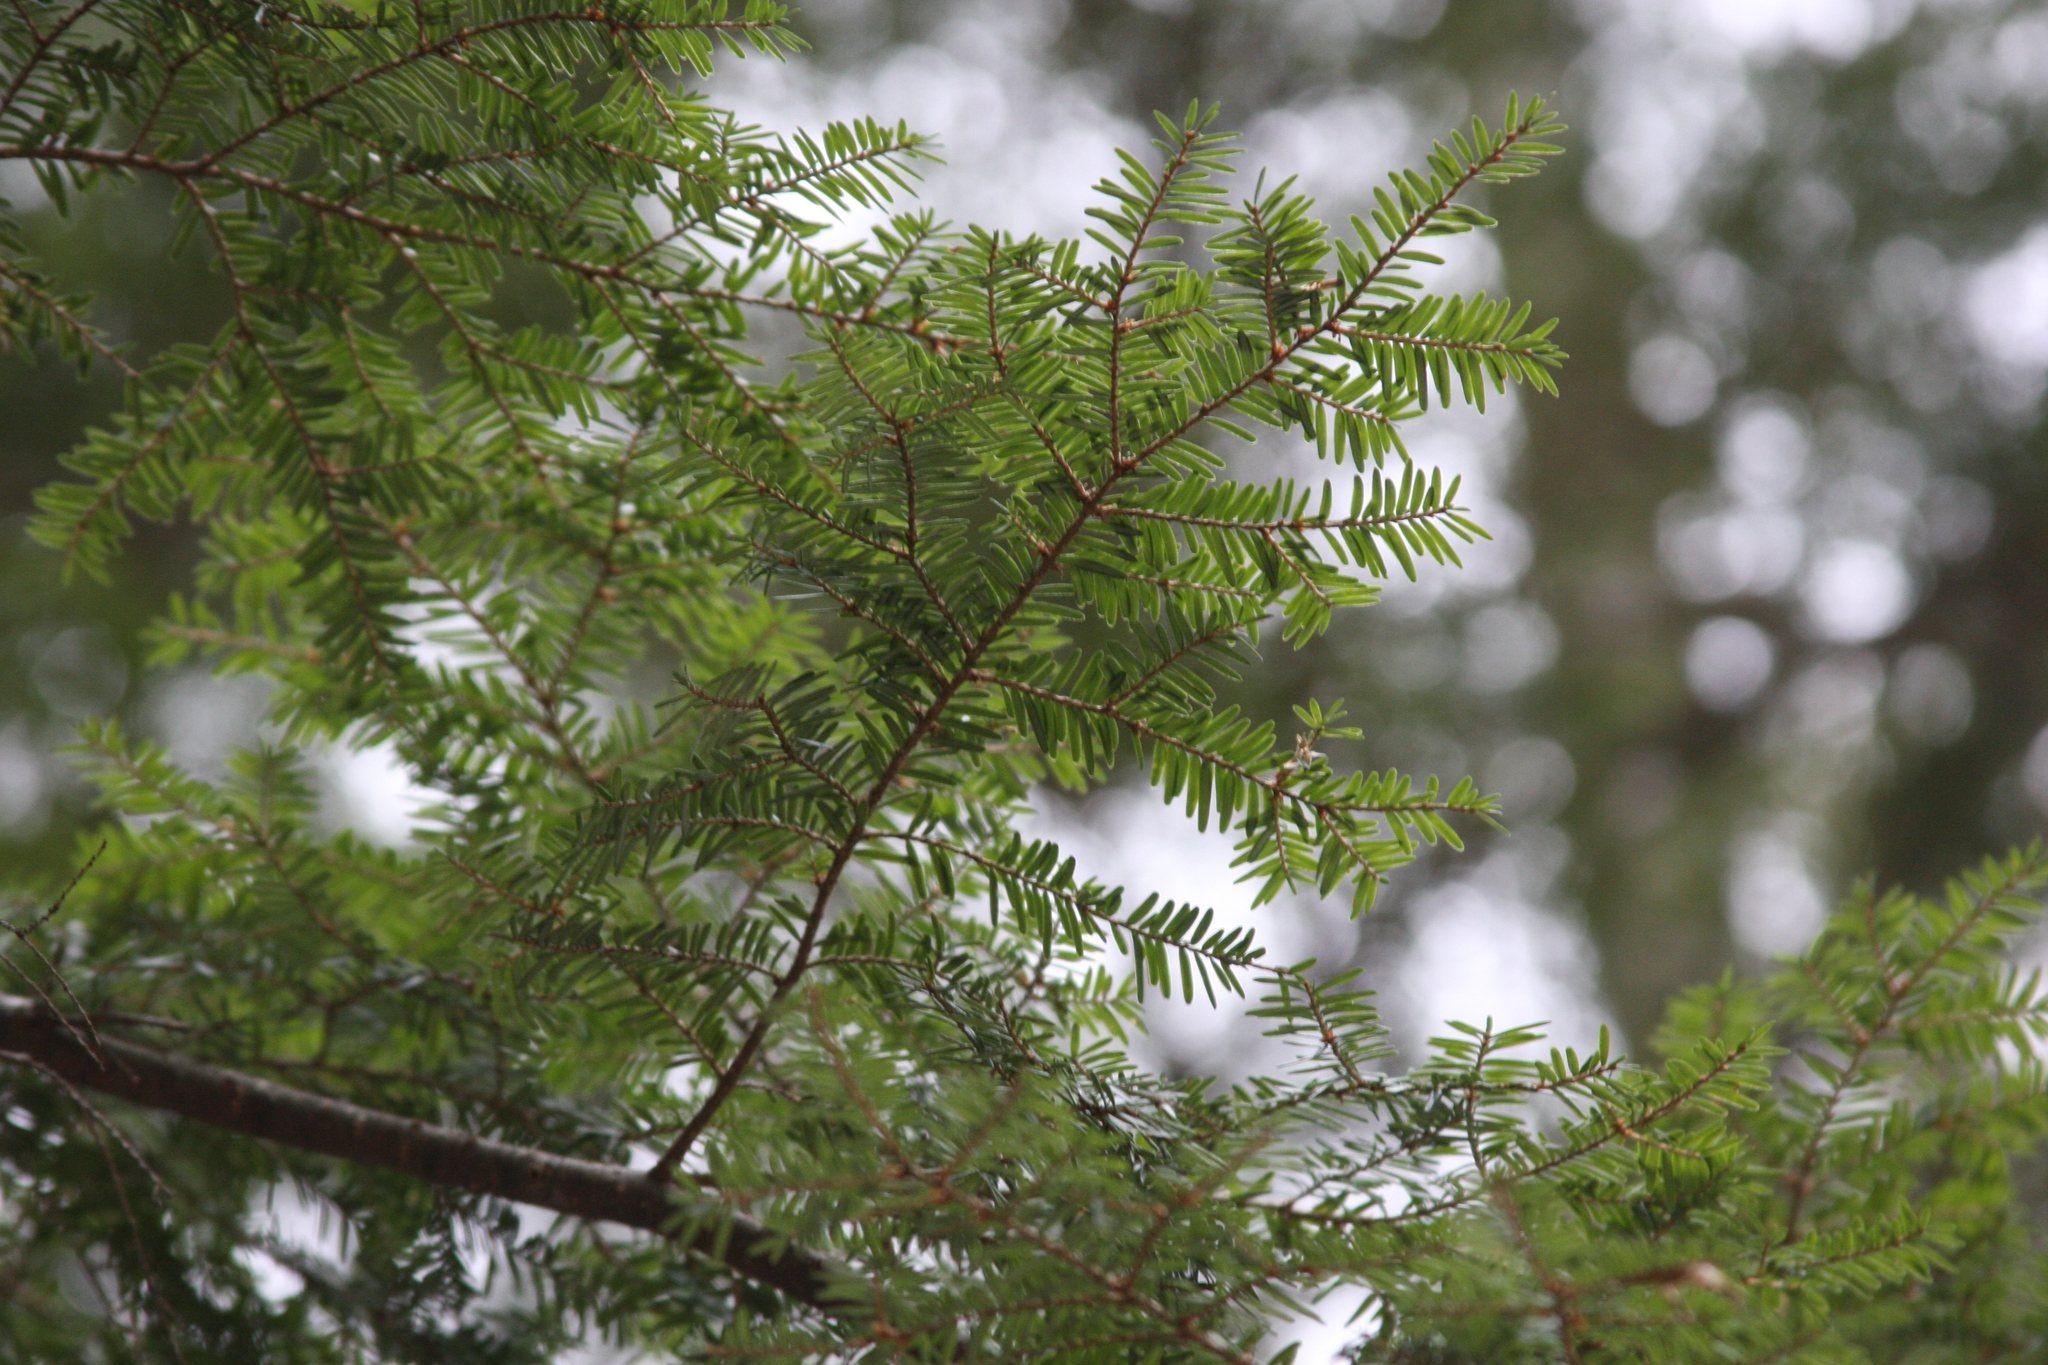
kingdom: Plantae
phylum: Tracheophyta
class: Pinopsida
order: Pinales
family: Pinaceae
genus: Tsuga
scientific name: Tsuga canadensis
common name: Eastern hemlock
